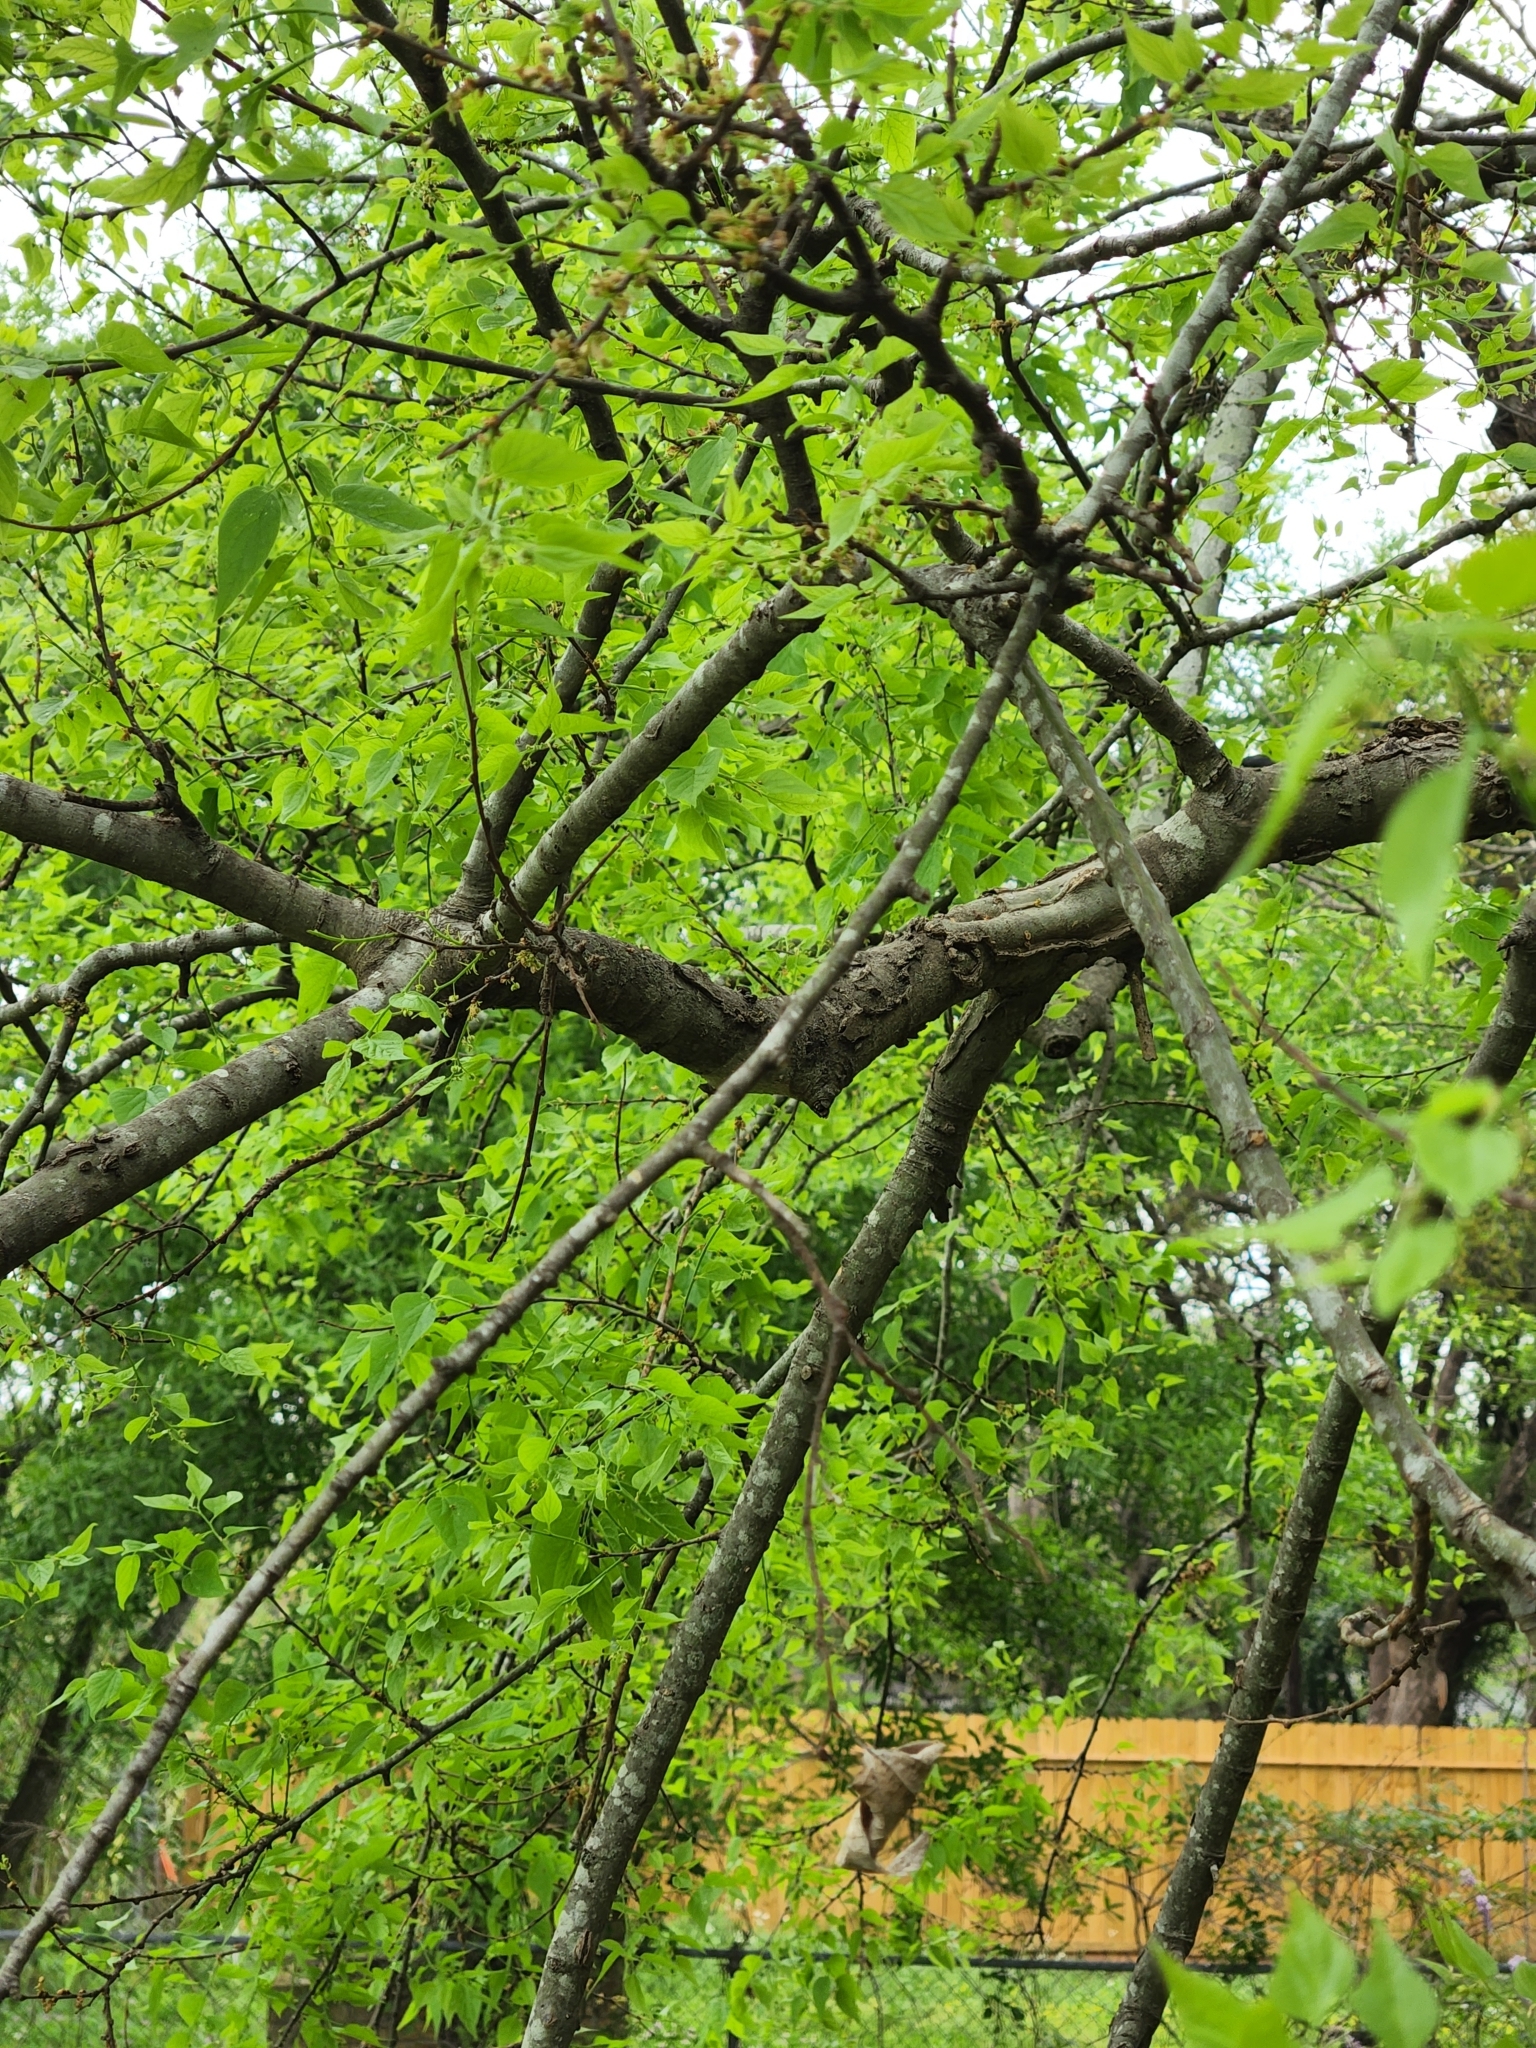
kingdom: Plantae
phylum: Tracheophyta
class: Magnoliopsida
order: Rosales
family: Cannabaceae
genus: Celtis
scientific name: Celtis laevigata
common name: Sugarberry
